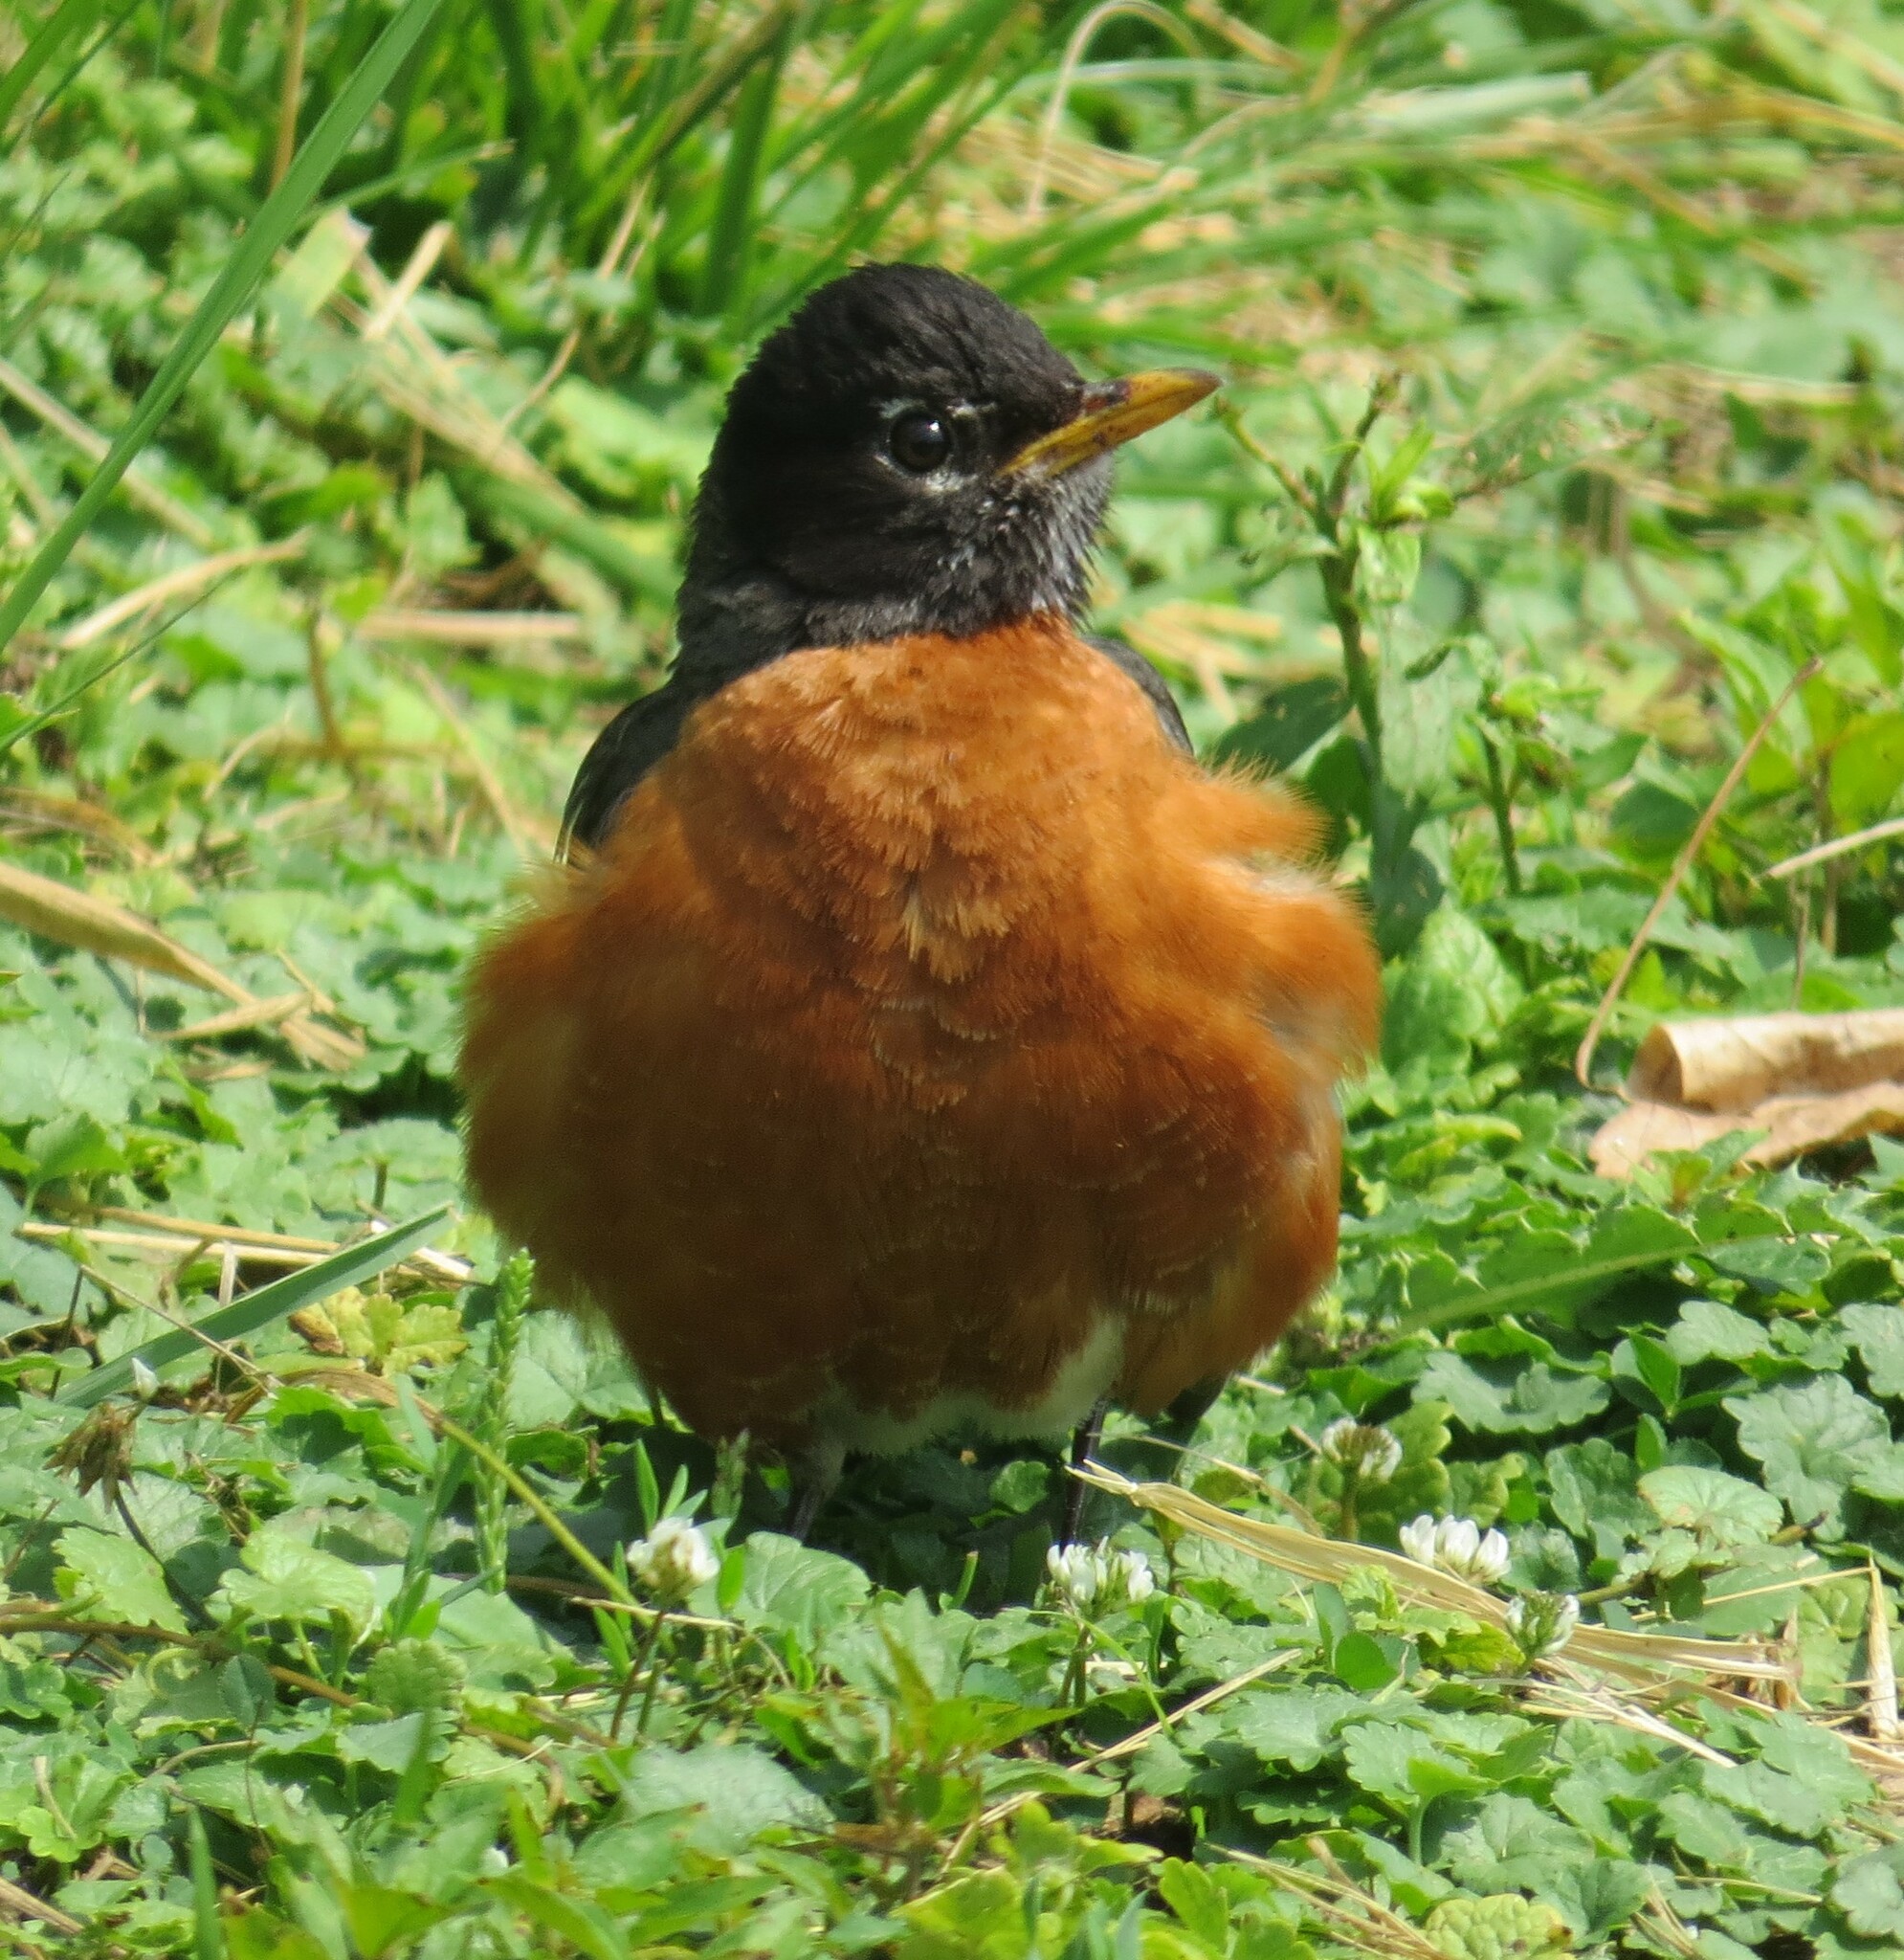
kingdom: Animalia
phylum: Chordata
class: Aves
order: Passeriformes
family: Turdidae
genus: Turdus
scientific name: Turdus migratorius
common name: American robin
